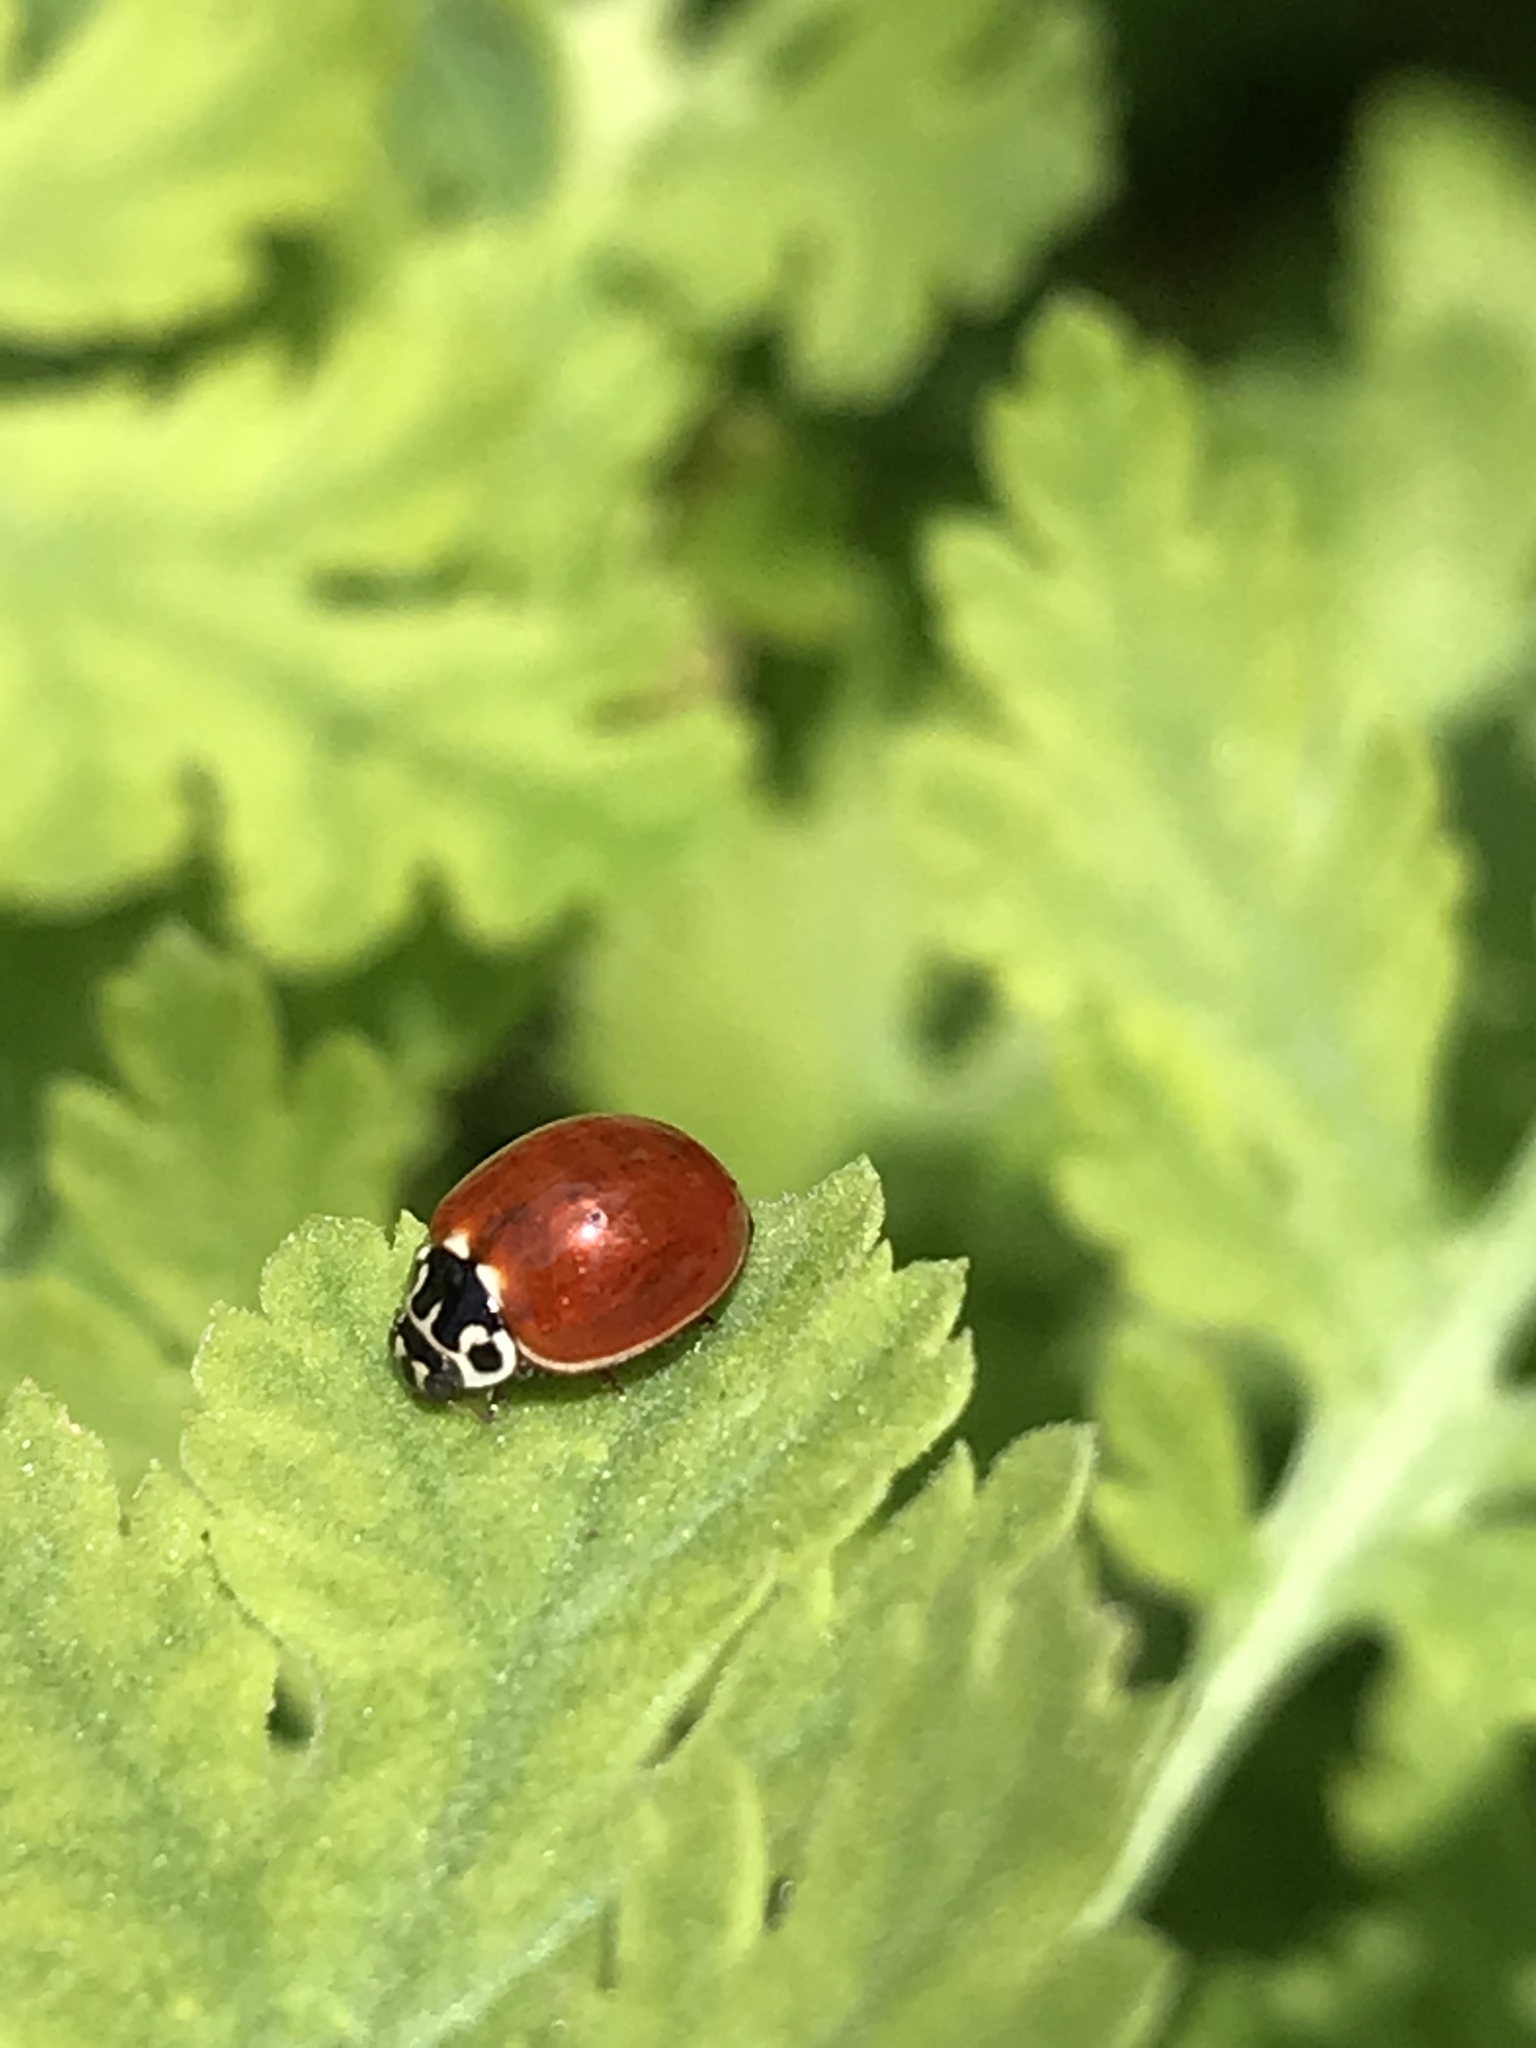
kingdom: Animalia
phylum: Arthropoda
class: Insecta
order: Coleoptera
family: Coccinellidae
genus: Cycloneda
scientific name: Cycloneda polita
